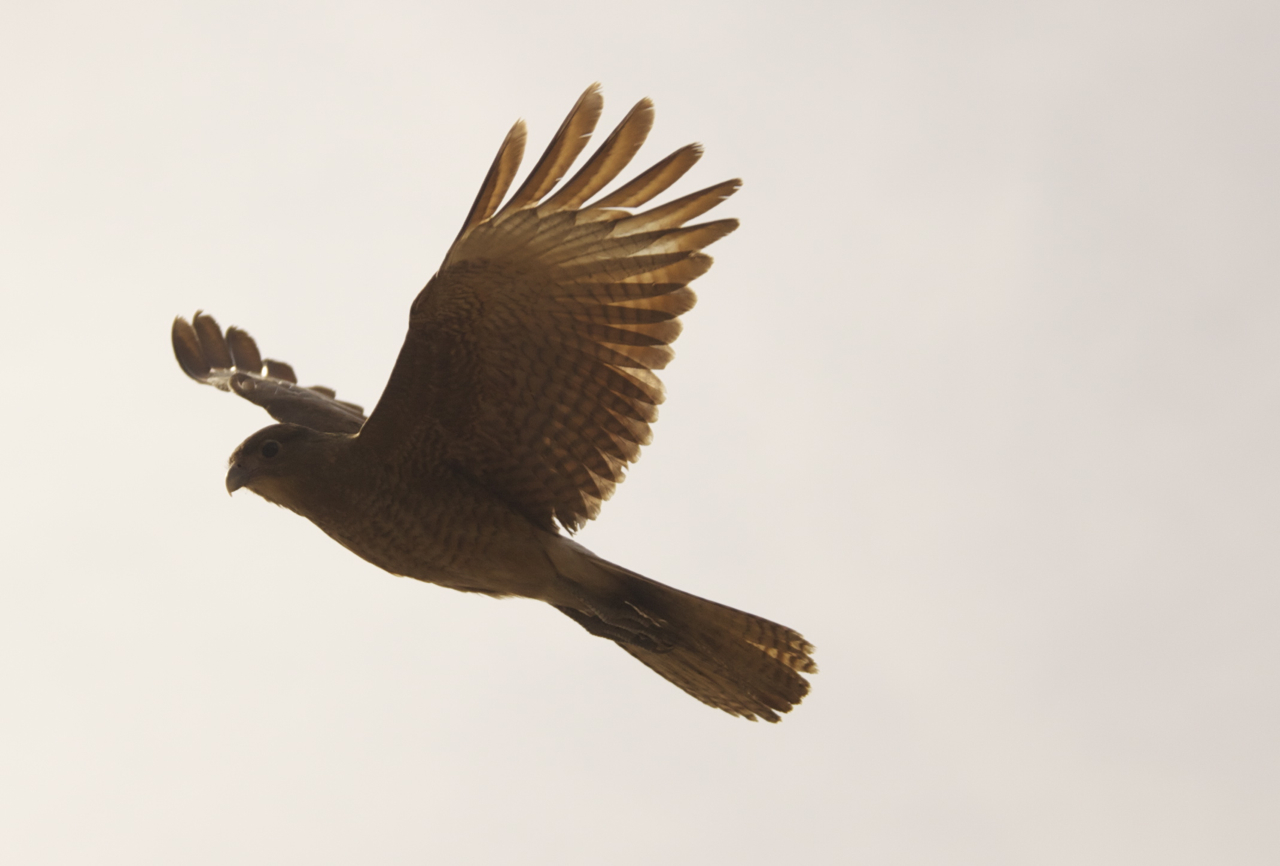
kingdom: Animalia
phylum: Chordata
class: Aves
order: Falconiformes
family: Falconidae
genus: Daptrius
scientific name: Daptrius
